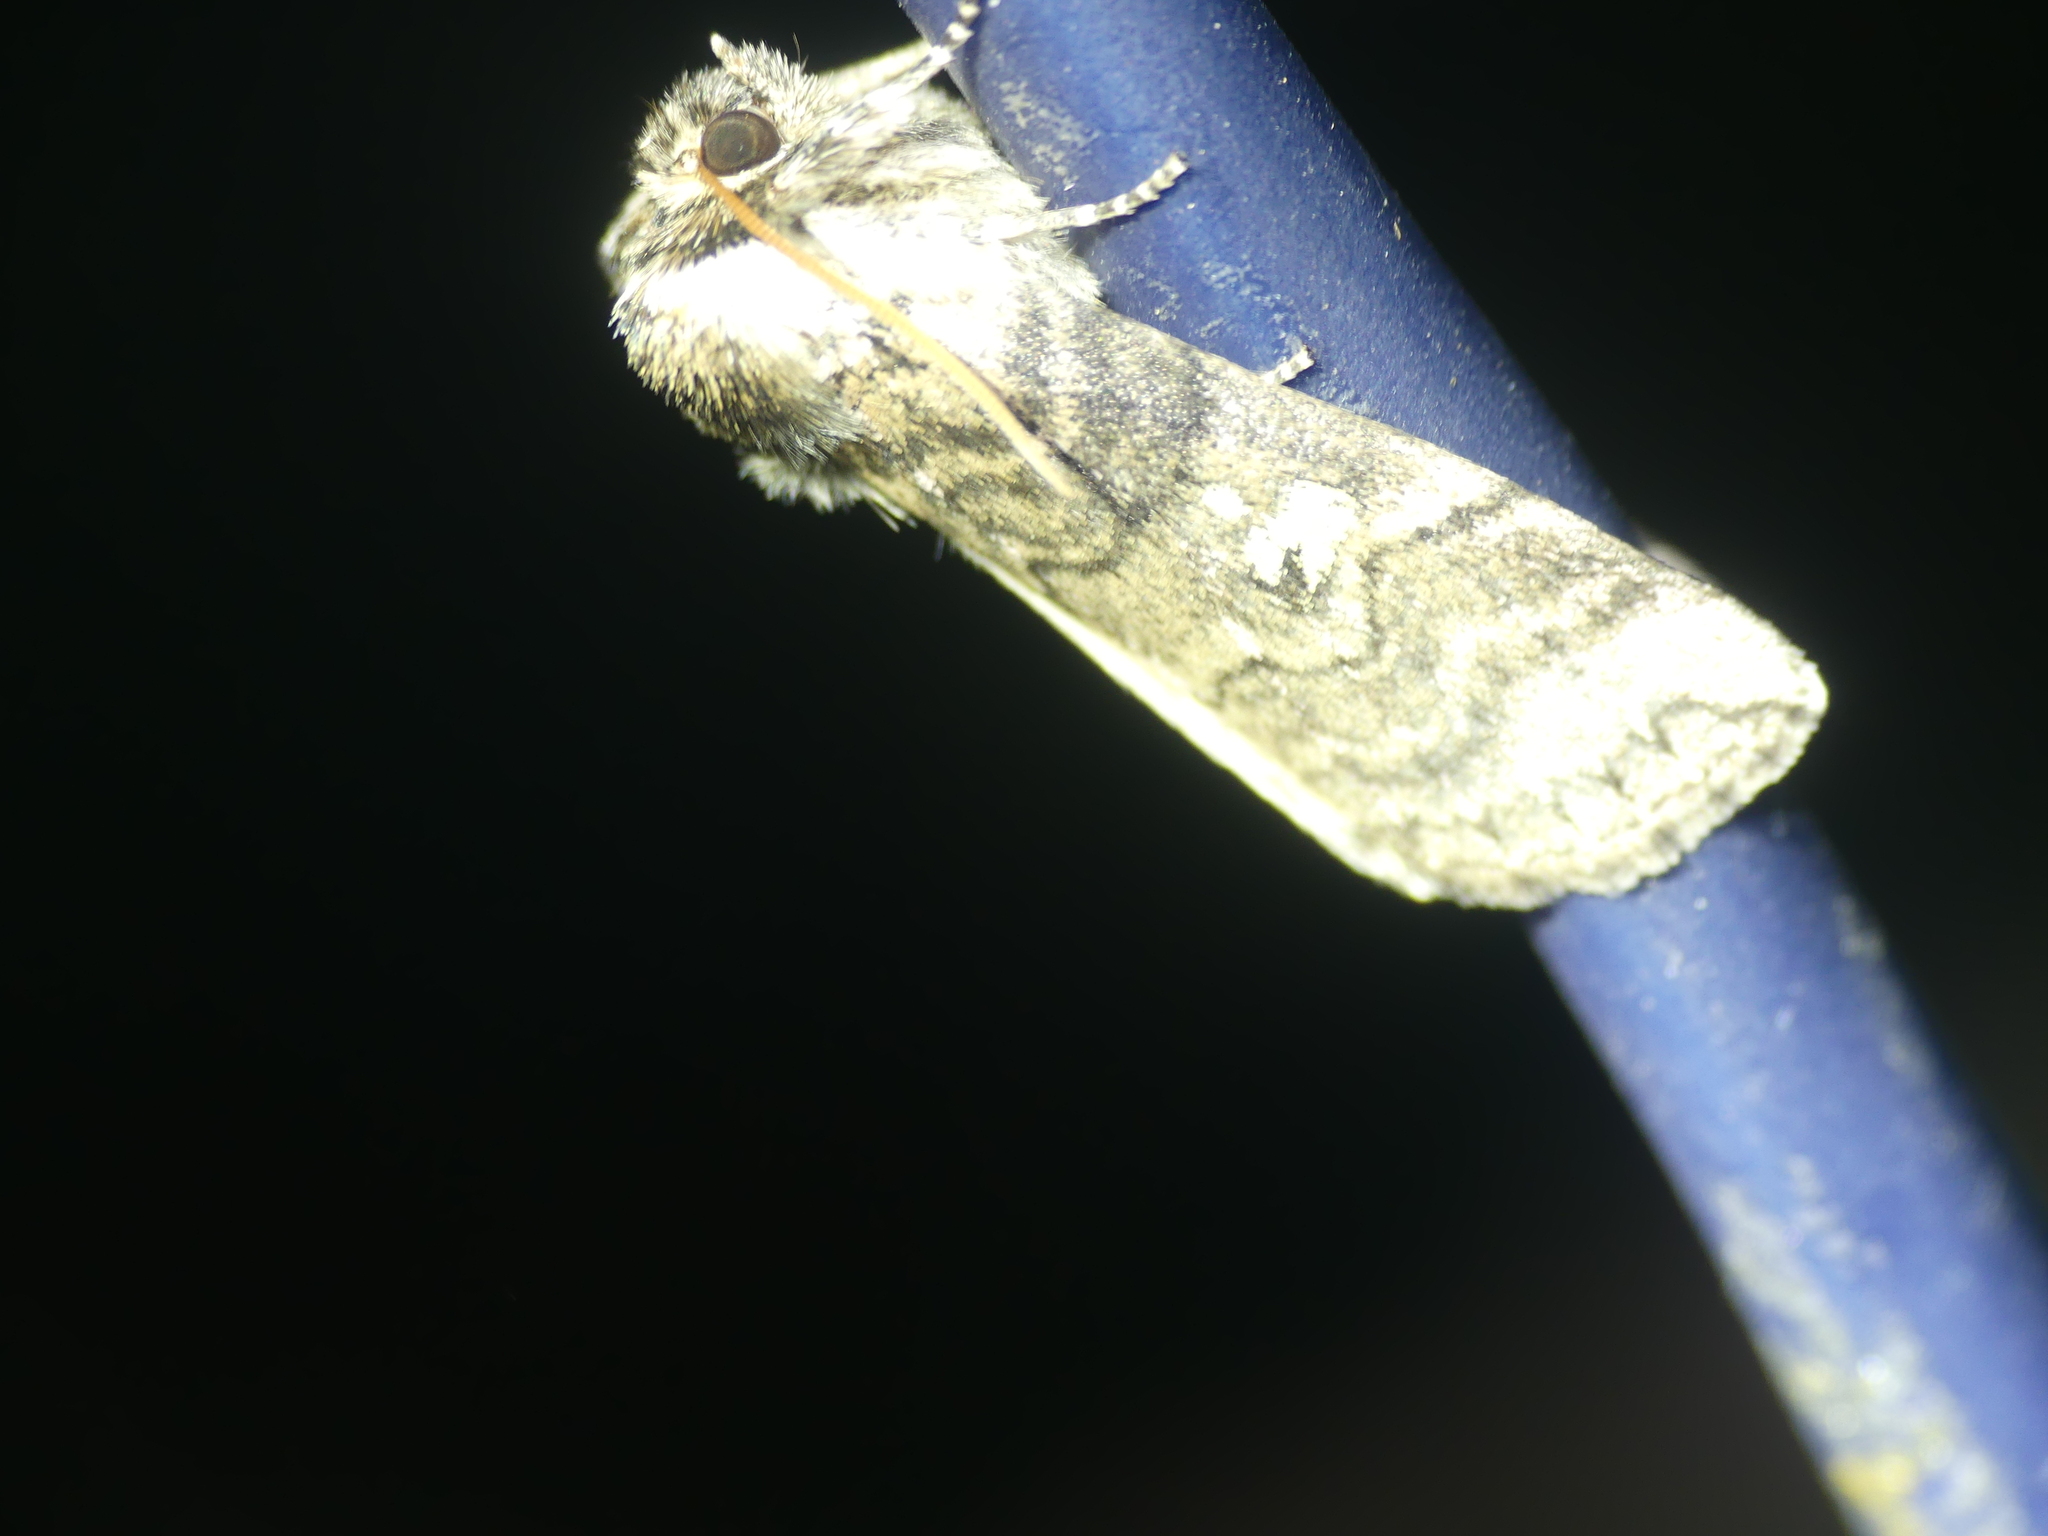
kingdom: Animalia
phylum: Arthropoda
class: Insecta
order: Lepidoptera
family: Drepanidae
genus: Tethea
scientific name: Tethea or
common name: Poplar lutestring
